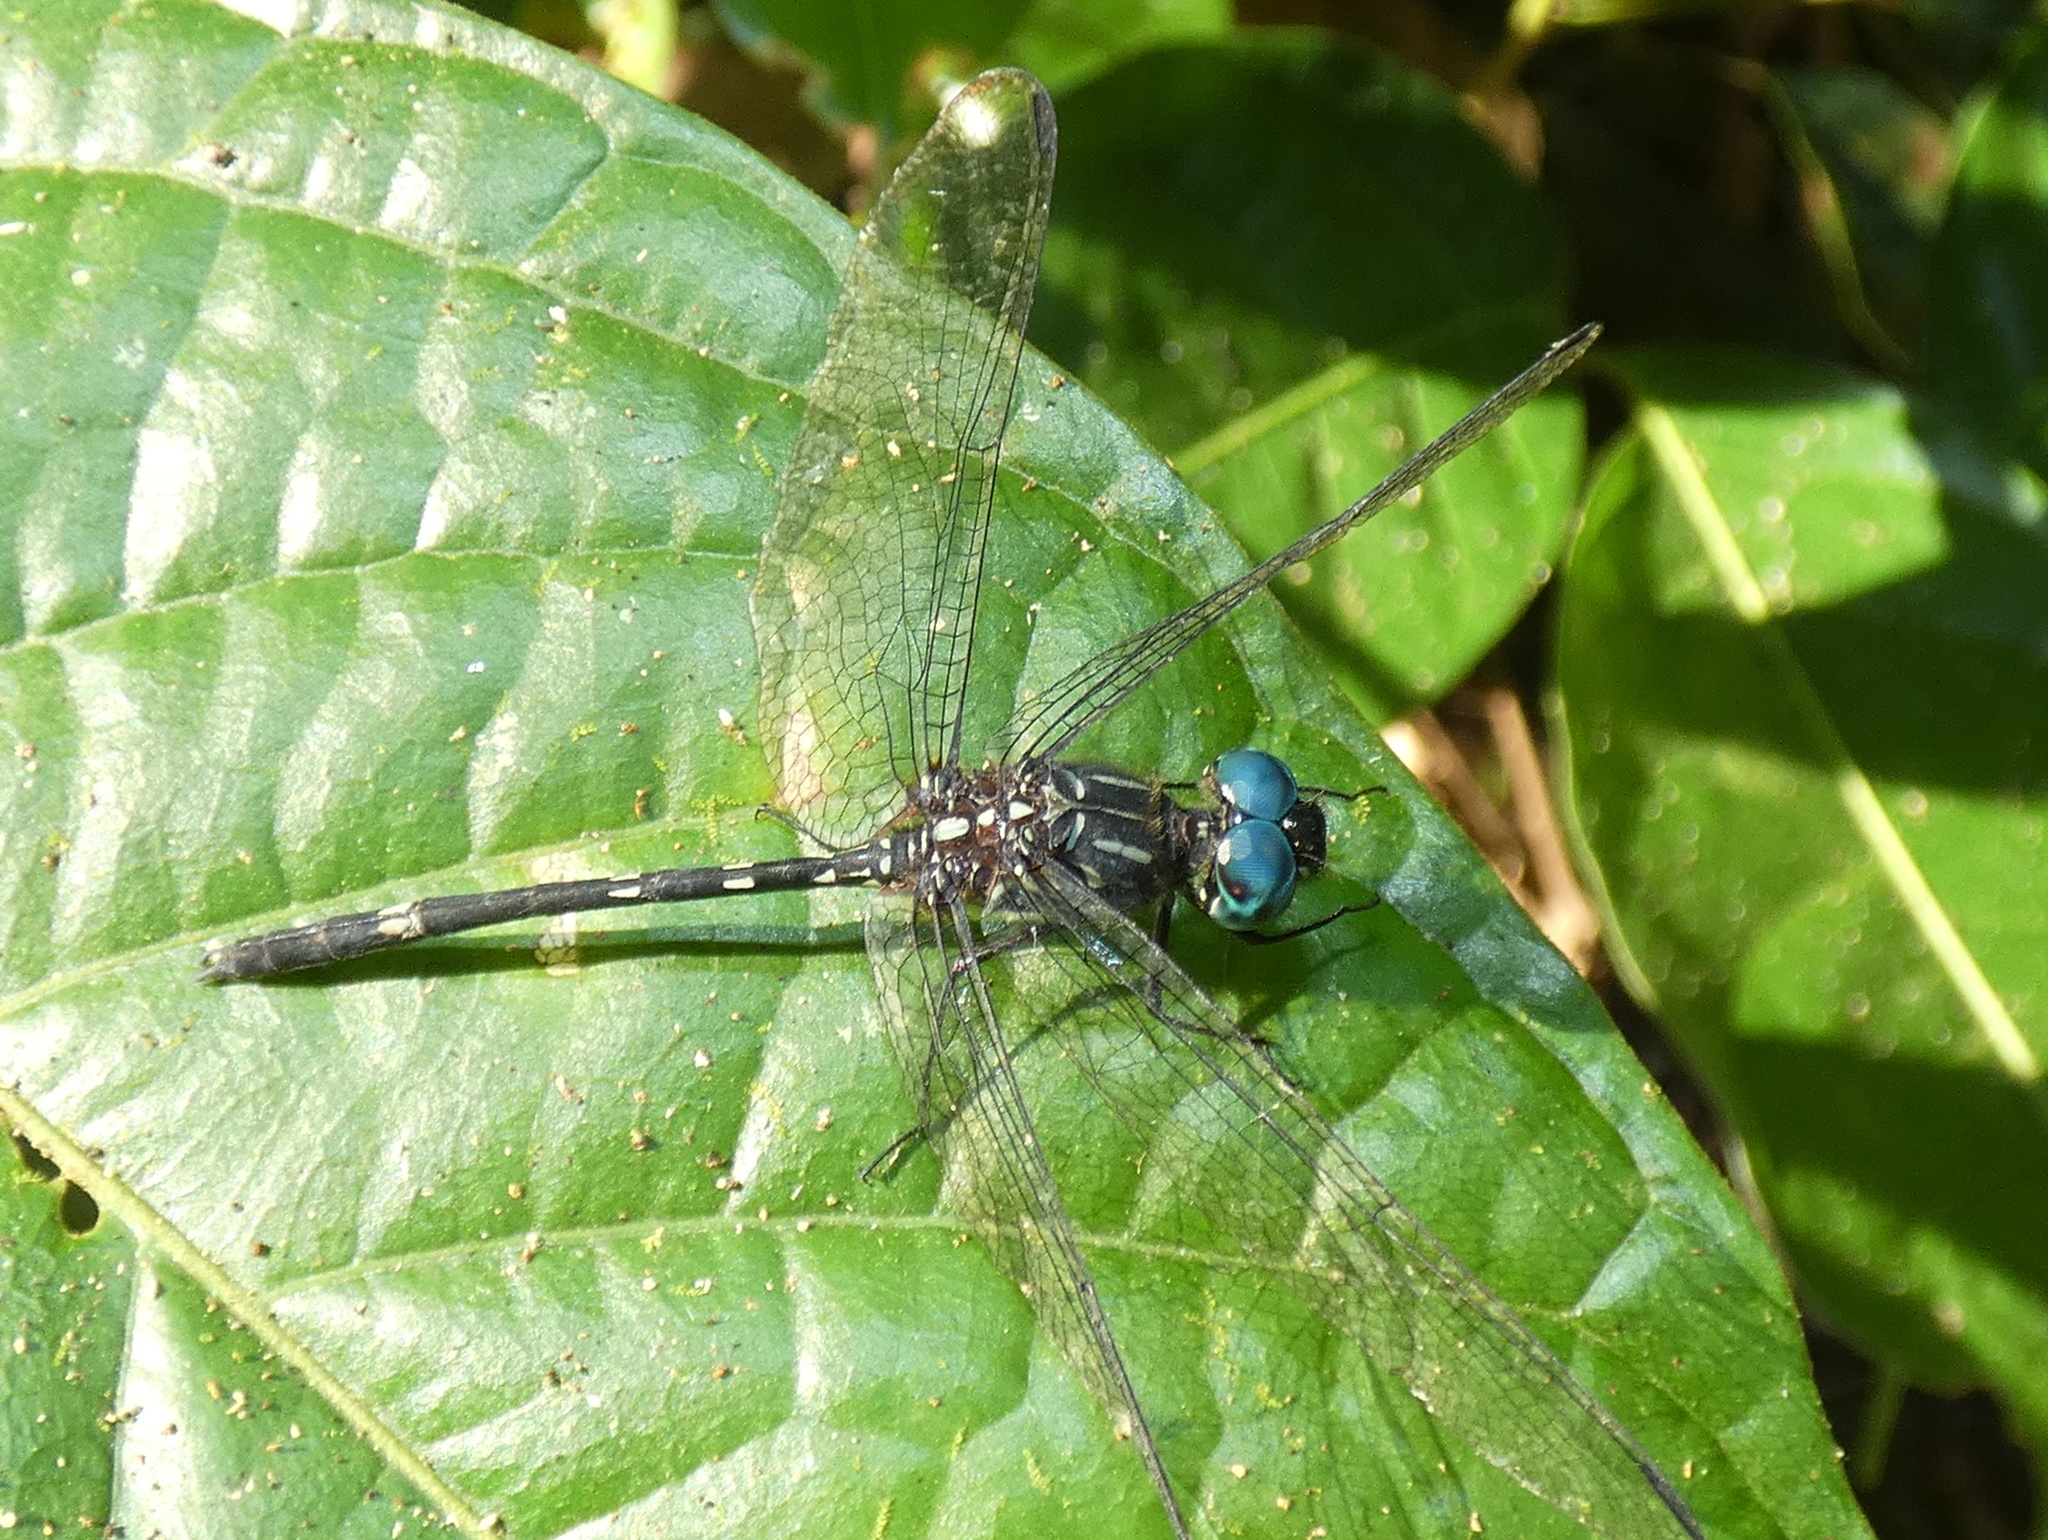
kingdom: Animalia
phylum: Arthropoda
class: Insecta
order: Odonata
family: Libellulidae
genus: Dythemis
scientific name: Dythemis nigra
